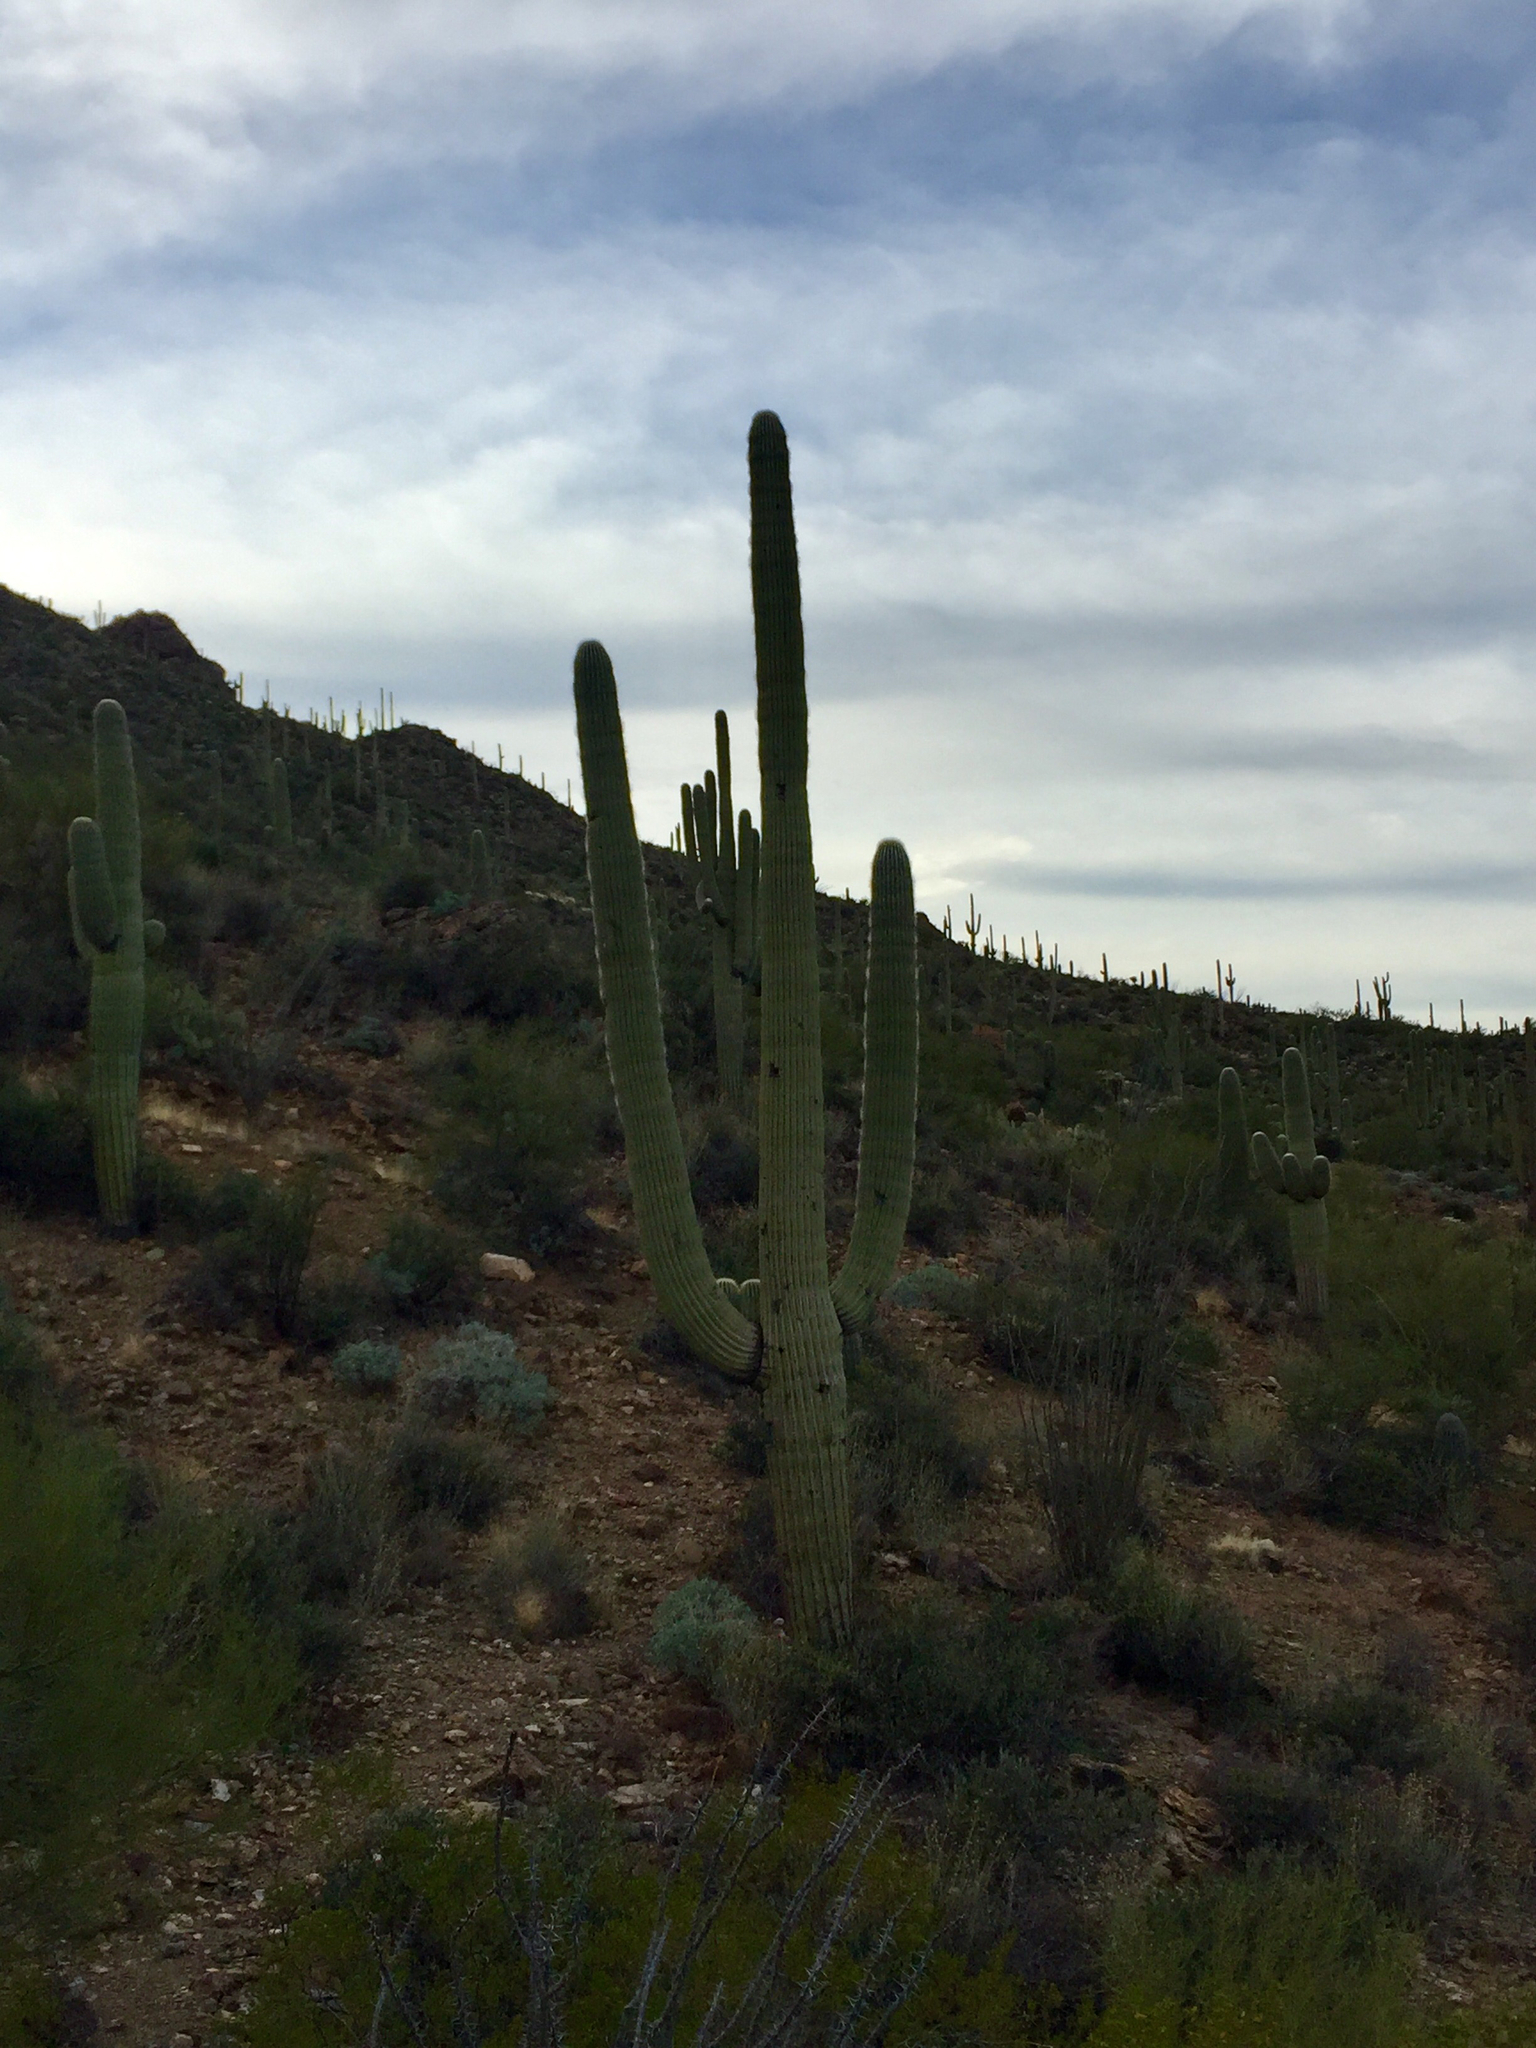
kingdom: Plantae
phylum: Tracheophyta
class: Magnoliopsida
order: Caryophyllales
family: Cactaceae
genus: Carnegiea
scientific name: Carnegiea gigantea
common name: Saguaro
